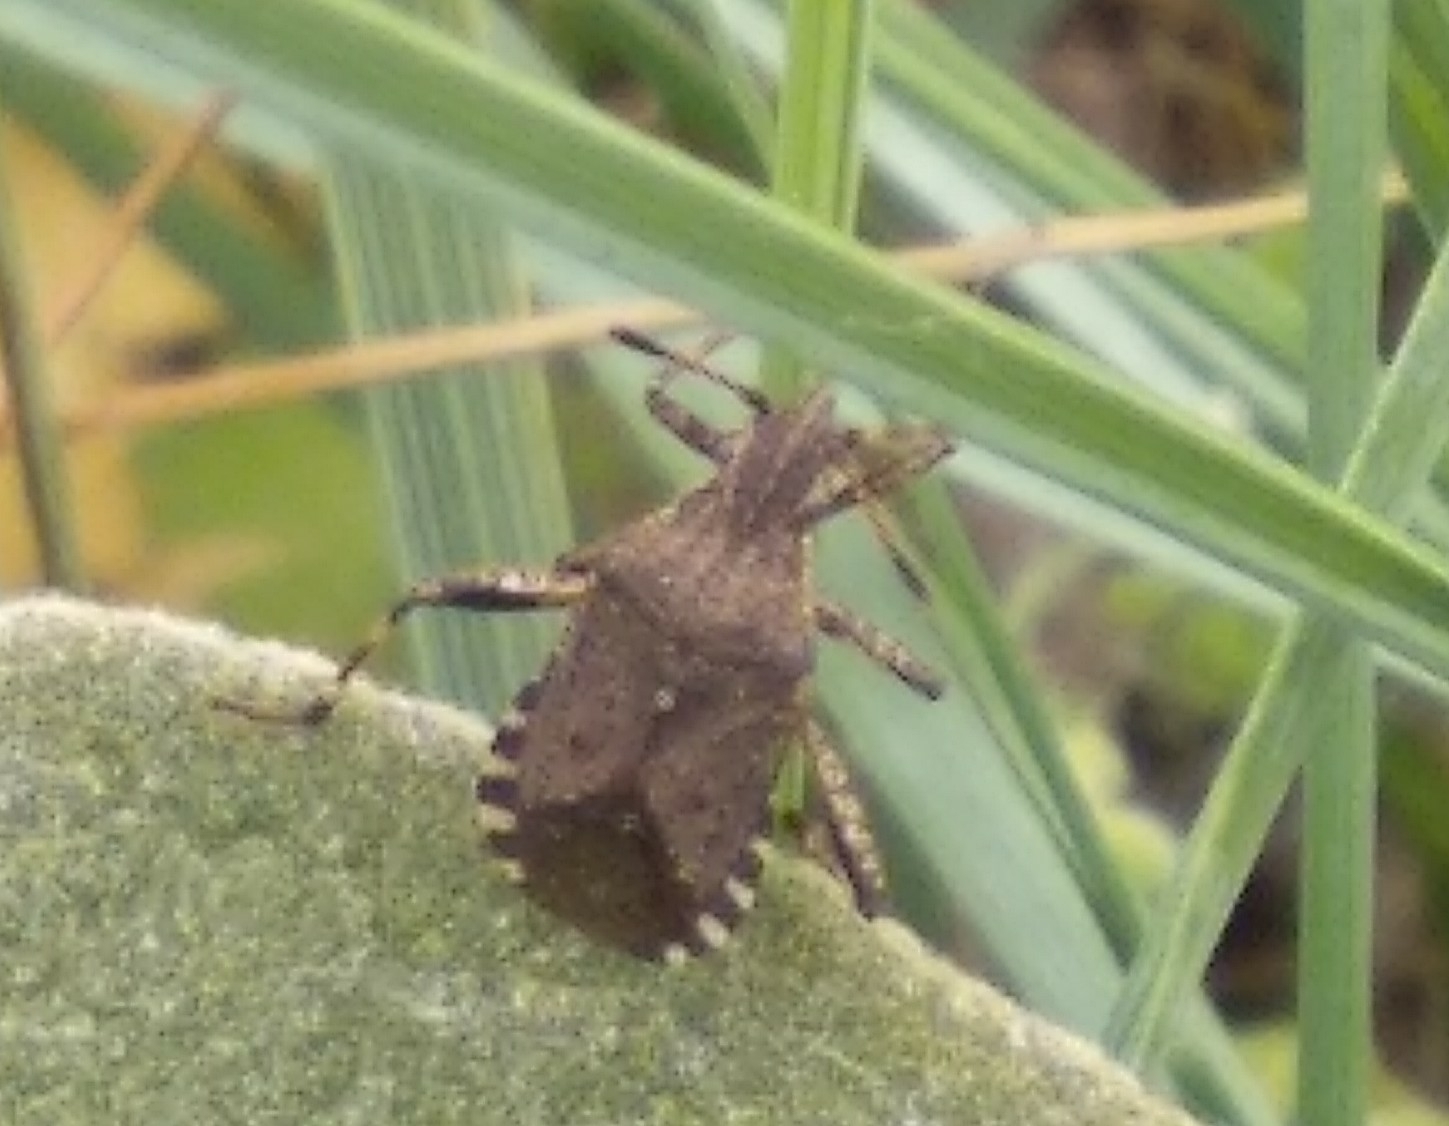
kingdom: Animalia
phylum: Arthropoda
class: Insecta
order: Hemiptera
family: Coreidae
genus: Ceraleptus
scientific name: Ceraleptus gracilicornis
